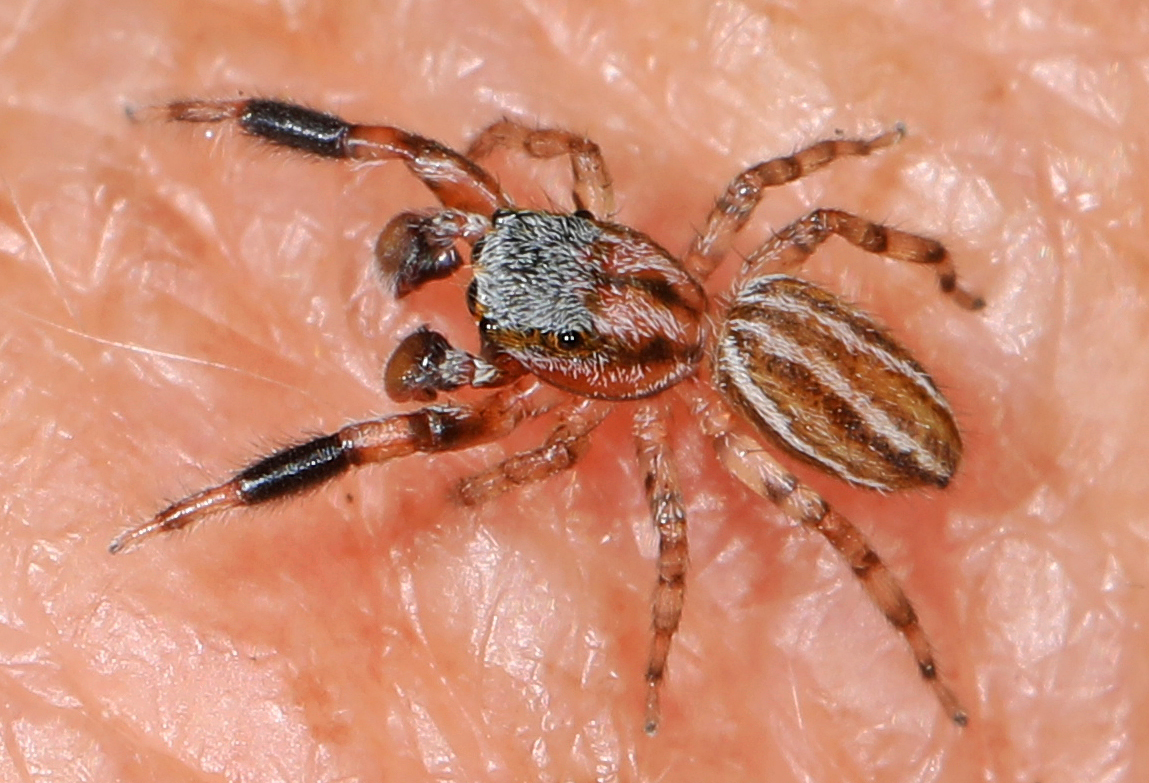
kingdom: Animalia
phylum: Arthropoda
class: Arachnida
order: Araneae
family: Salticidae
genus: Marpissa
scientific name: Marpissa lineata
